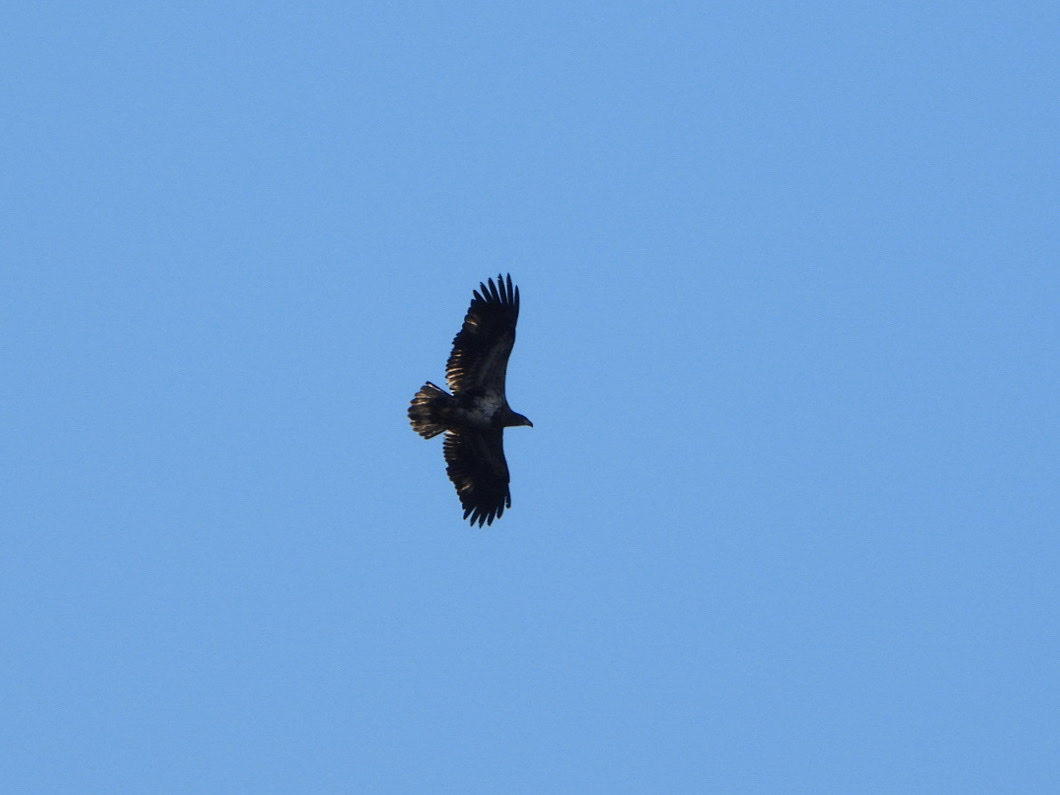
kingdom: Animalia
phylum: Chordata
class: Aves
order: Accipitriformes
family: Accipitridae
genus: Haliaeetus
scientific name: Haliaeetus leucocephalus
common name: Bald eagle
